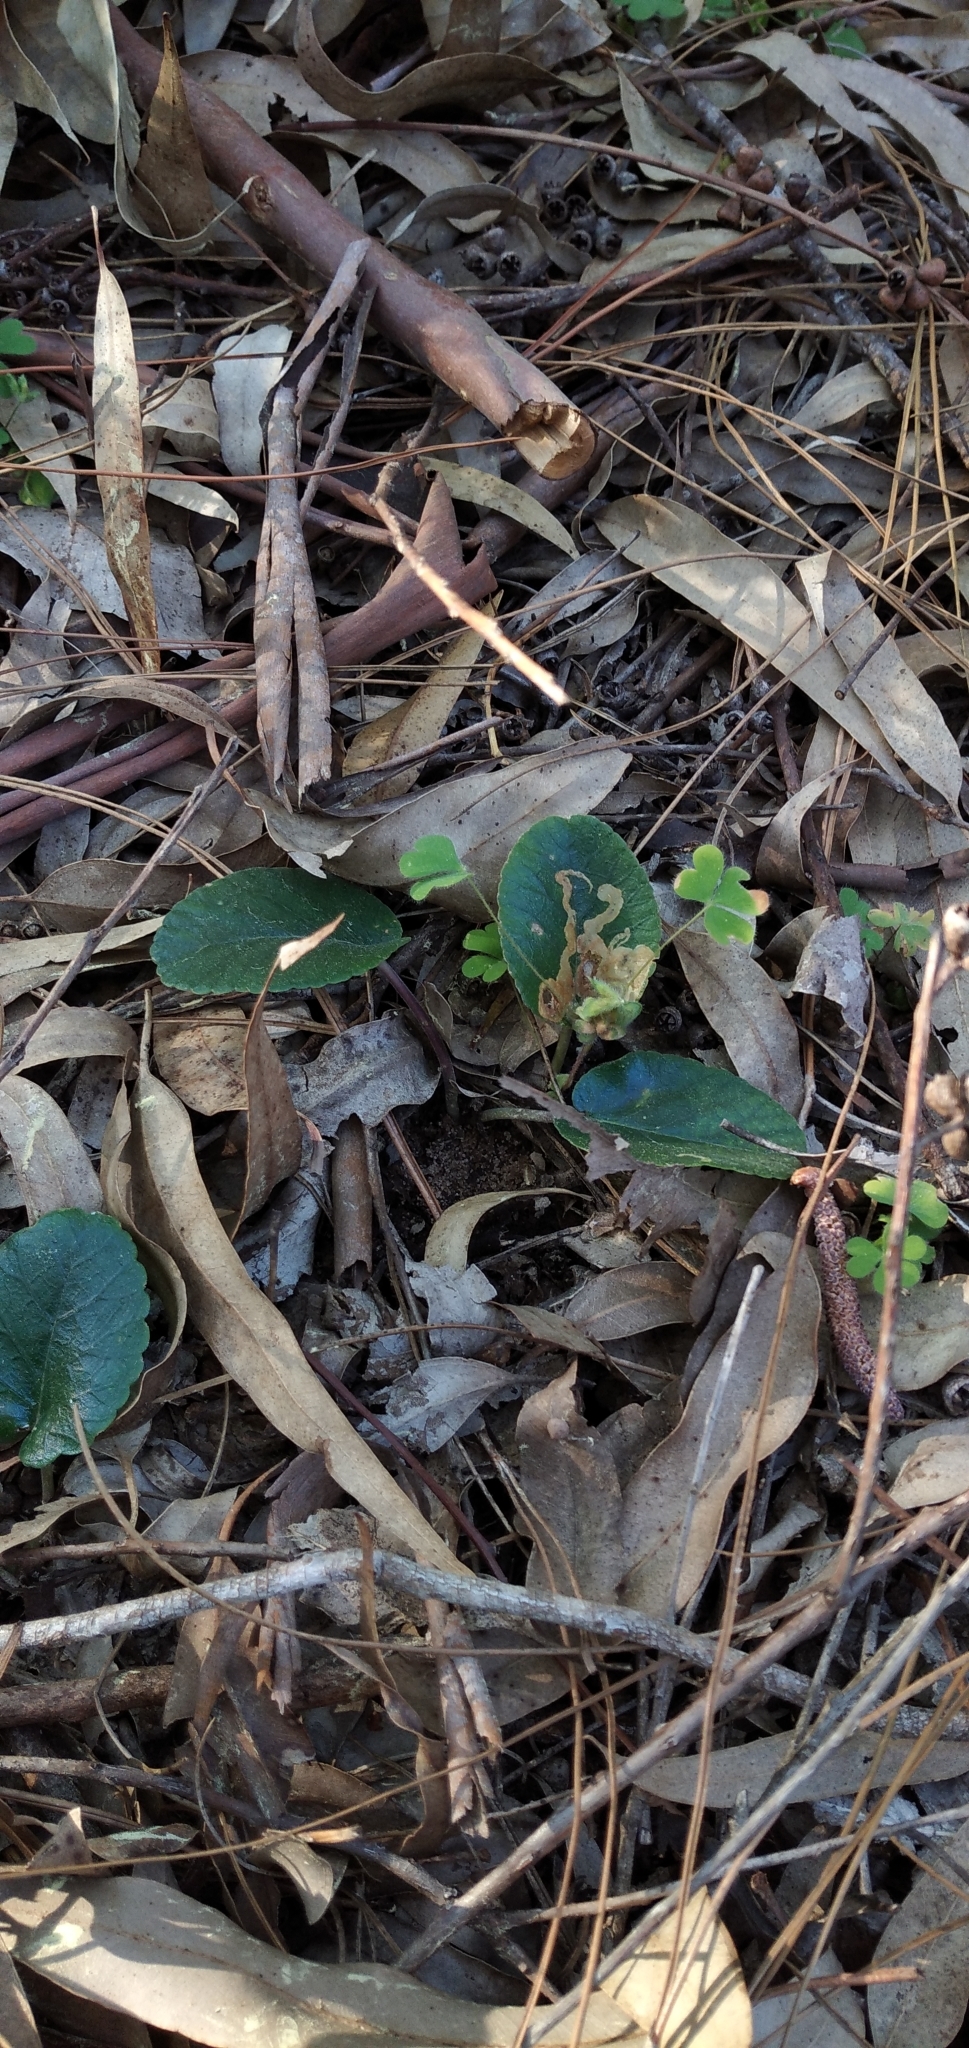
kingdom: Plantae
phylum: Tracheophyta
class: Magnoliopsida
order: Rosales
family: Moraceae
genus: Dorstenia
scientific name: Dorstenia brasiliensis
